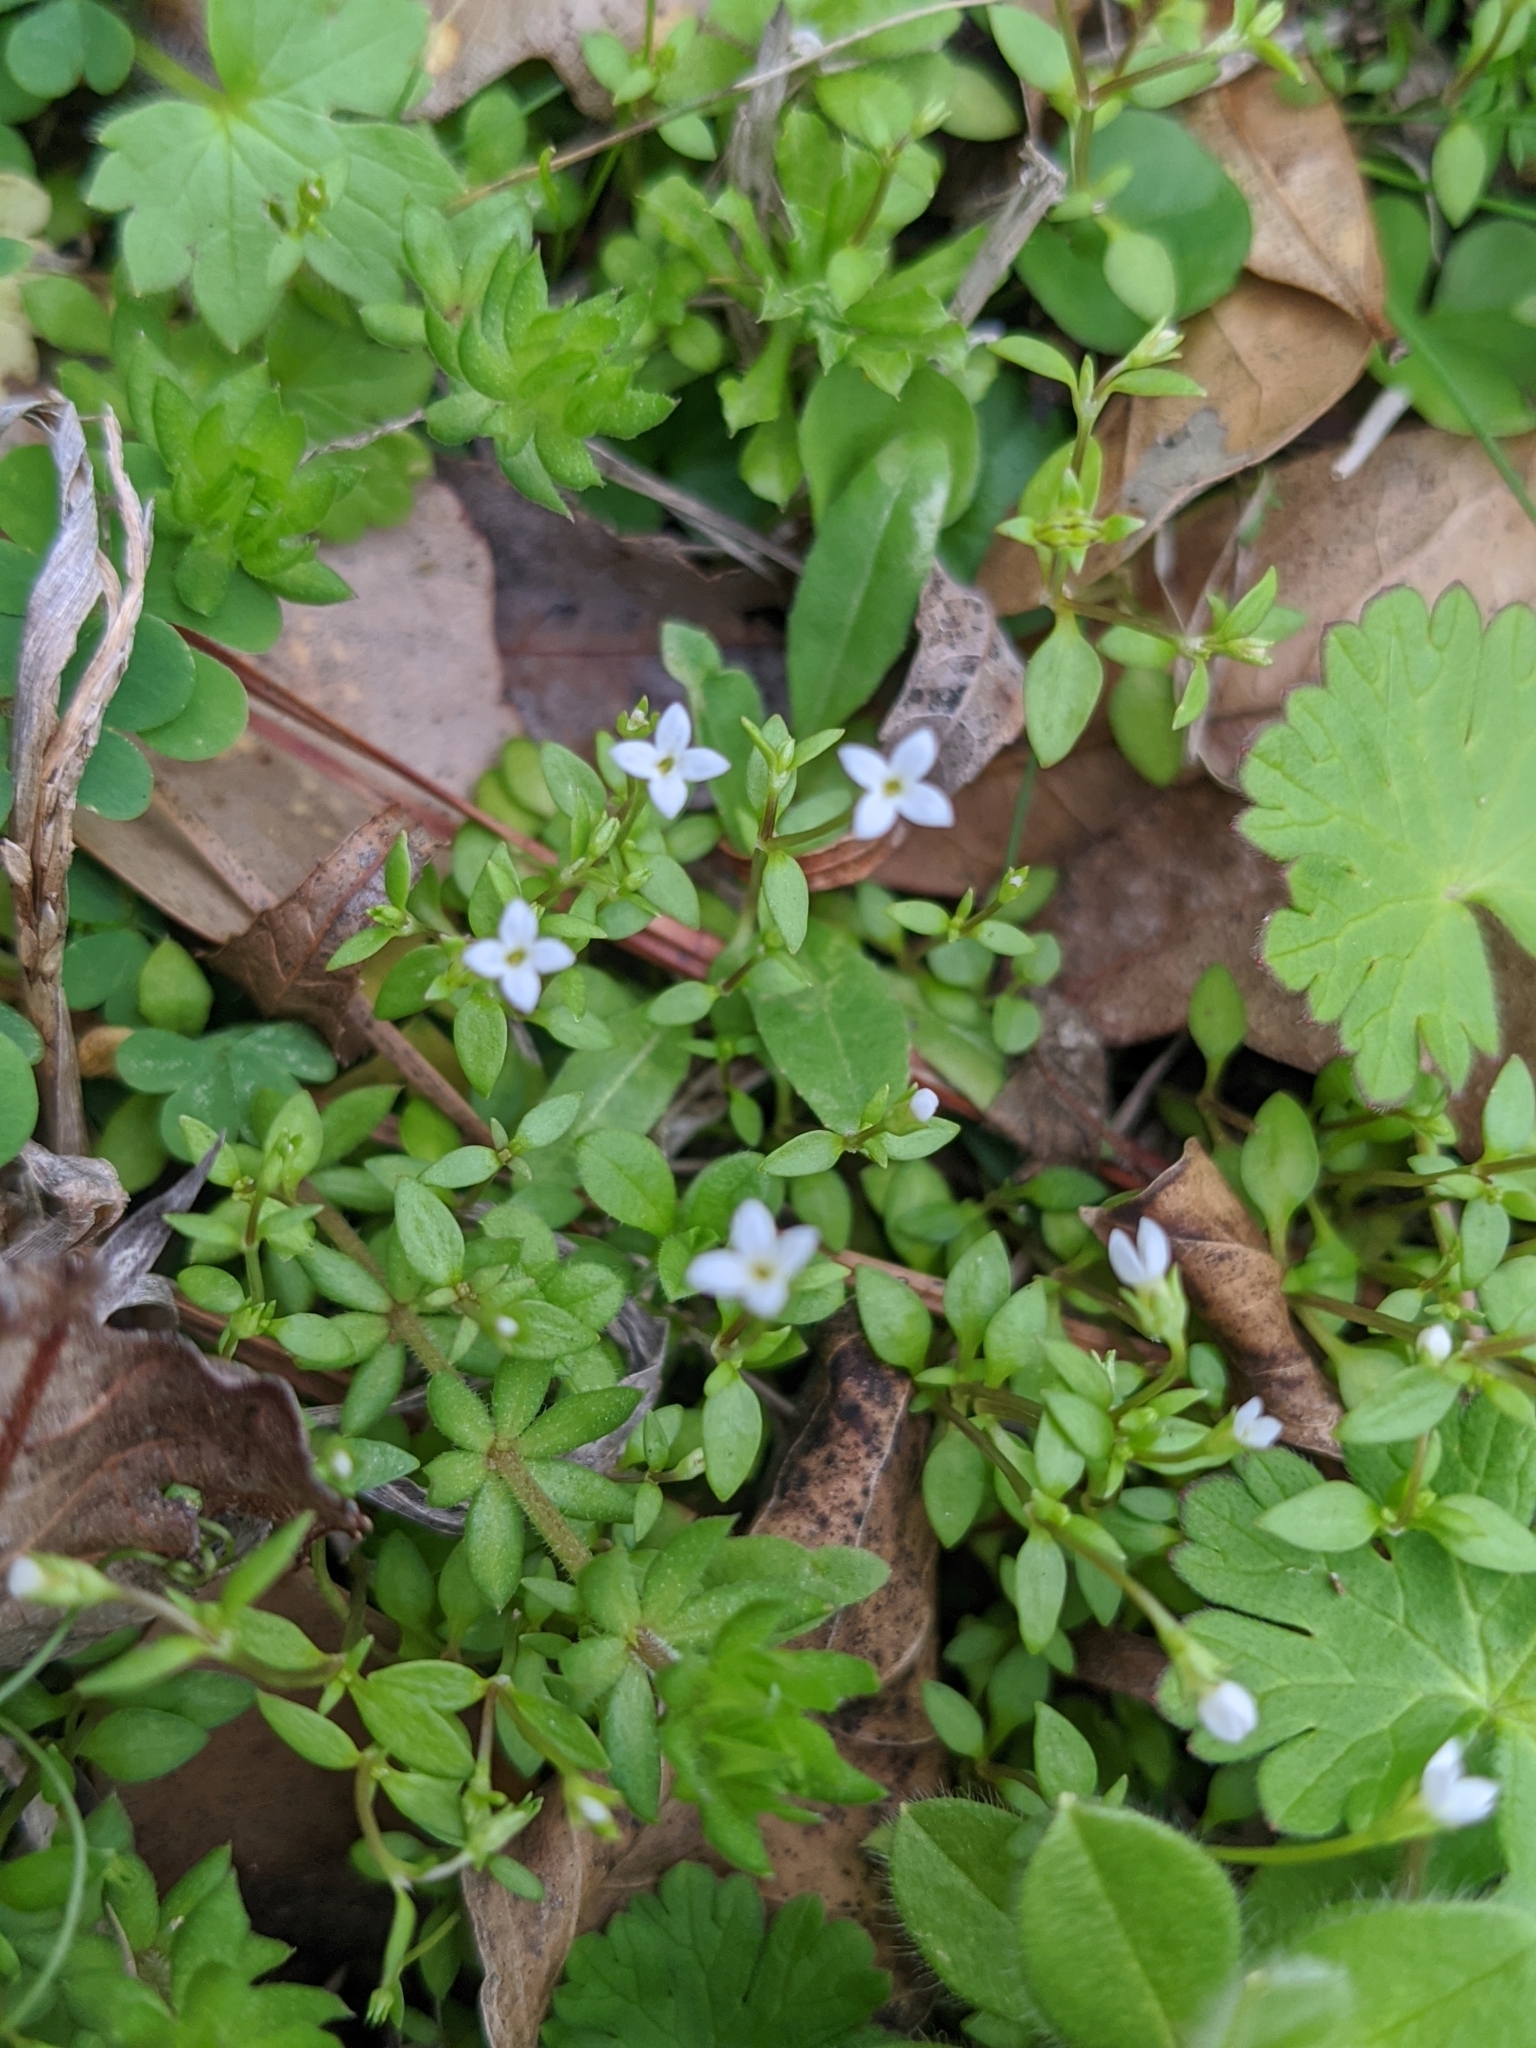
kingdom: Plantae
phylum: Tracheophyta
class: Magnoliopsida
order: Gentianales
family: Rubiaceae
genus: Houstonia
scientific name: Houstonia micrantha
